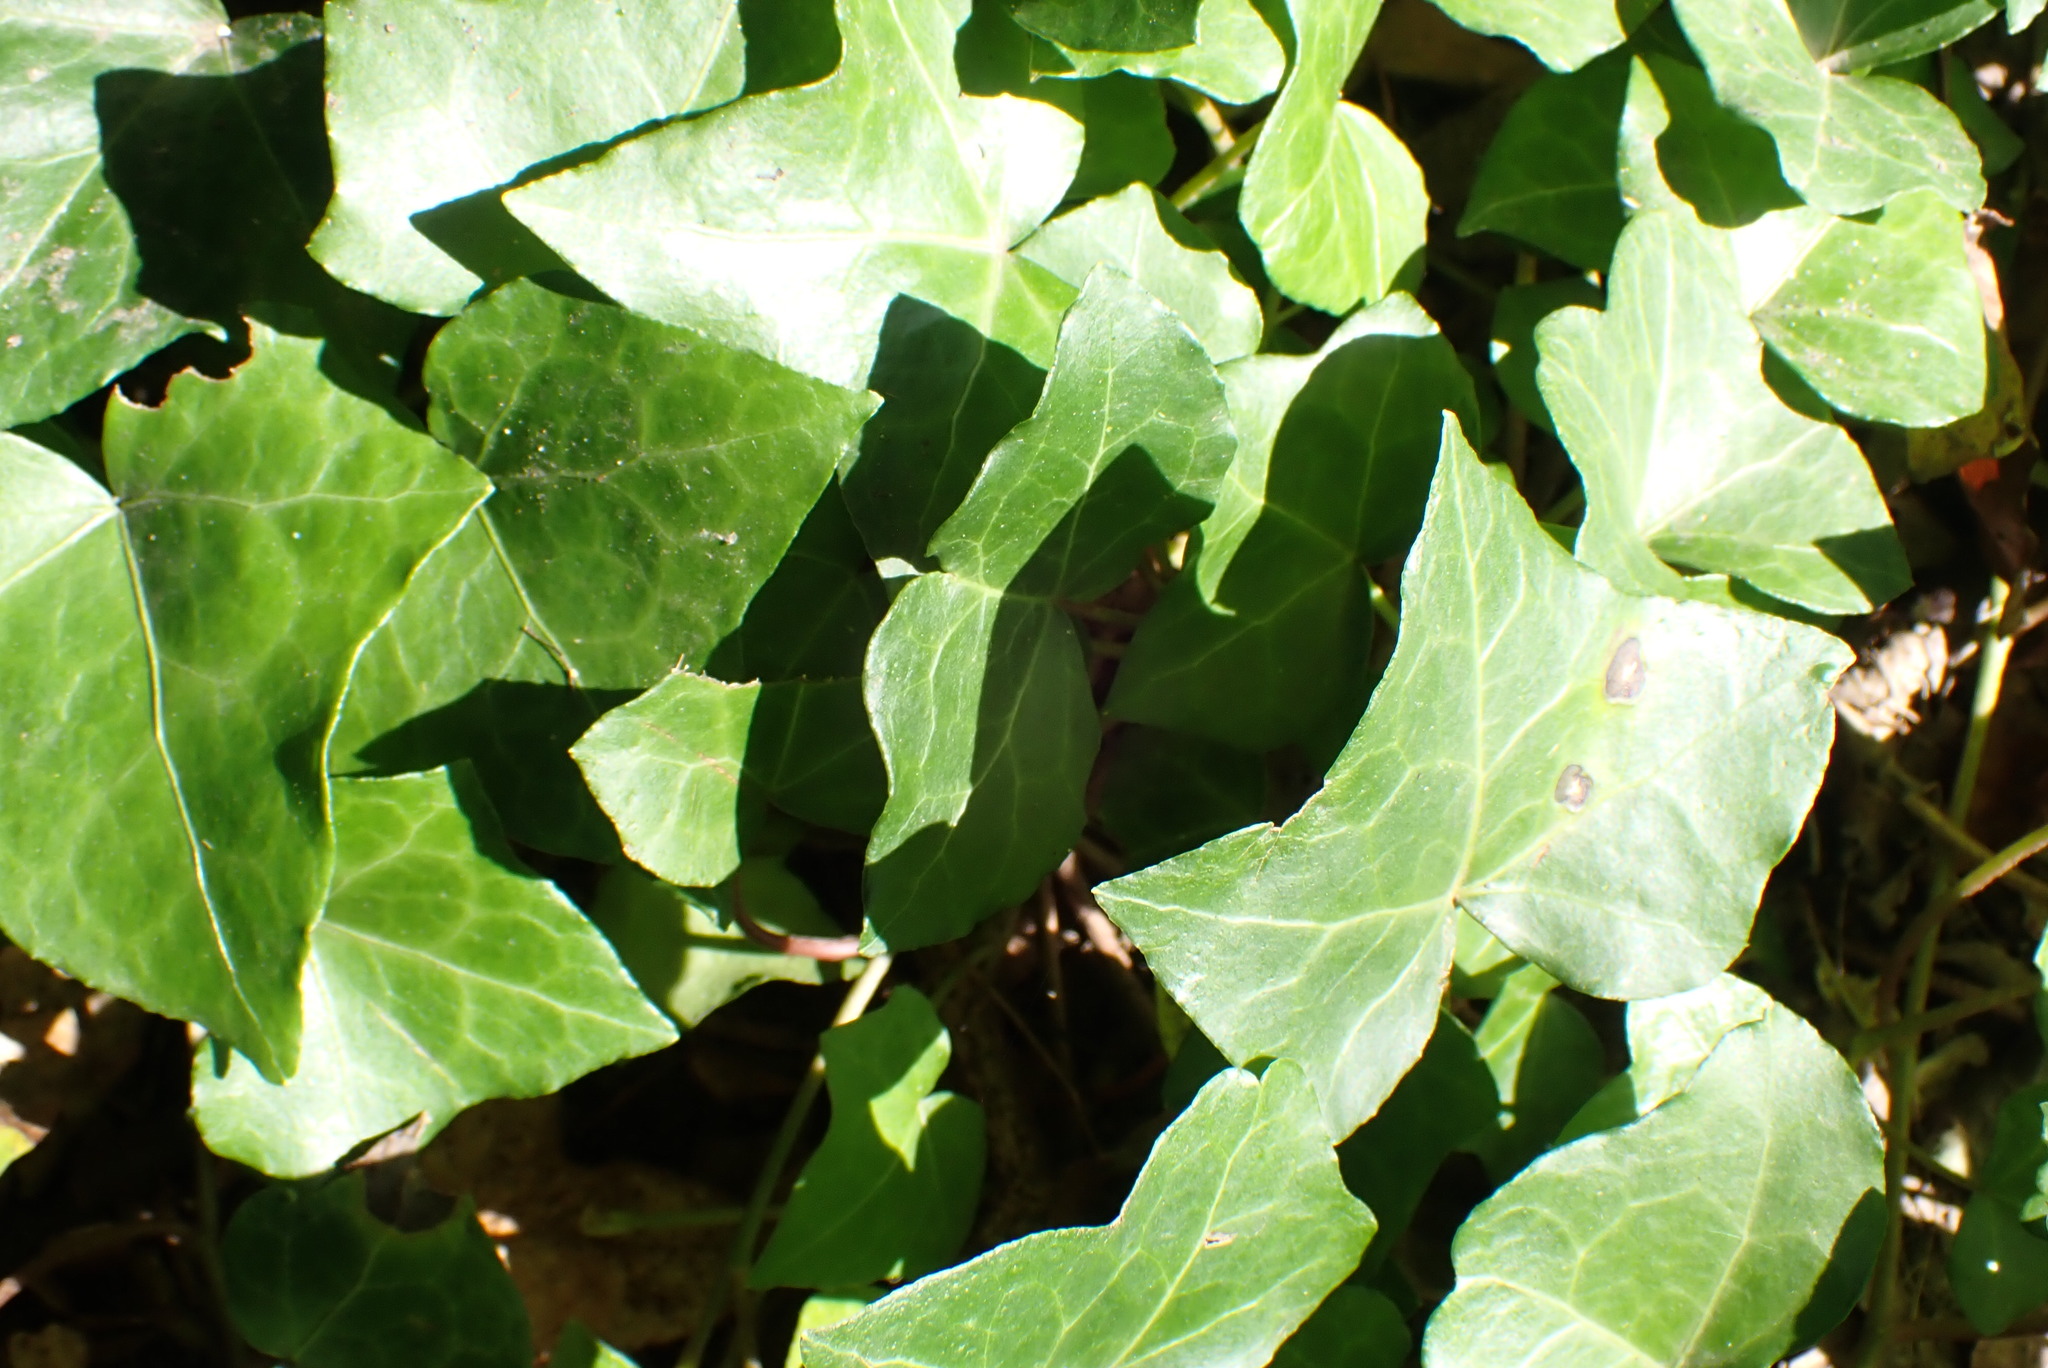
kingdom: Plantae
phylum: Tracheophyta
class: Magnoliopsida
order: Apiales
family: Araliaceae
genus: Hedera
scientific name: Hedera helix
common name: Ivy
